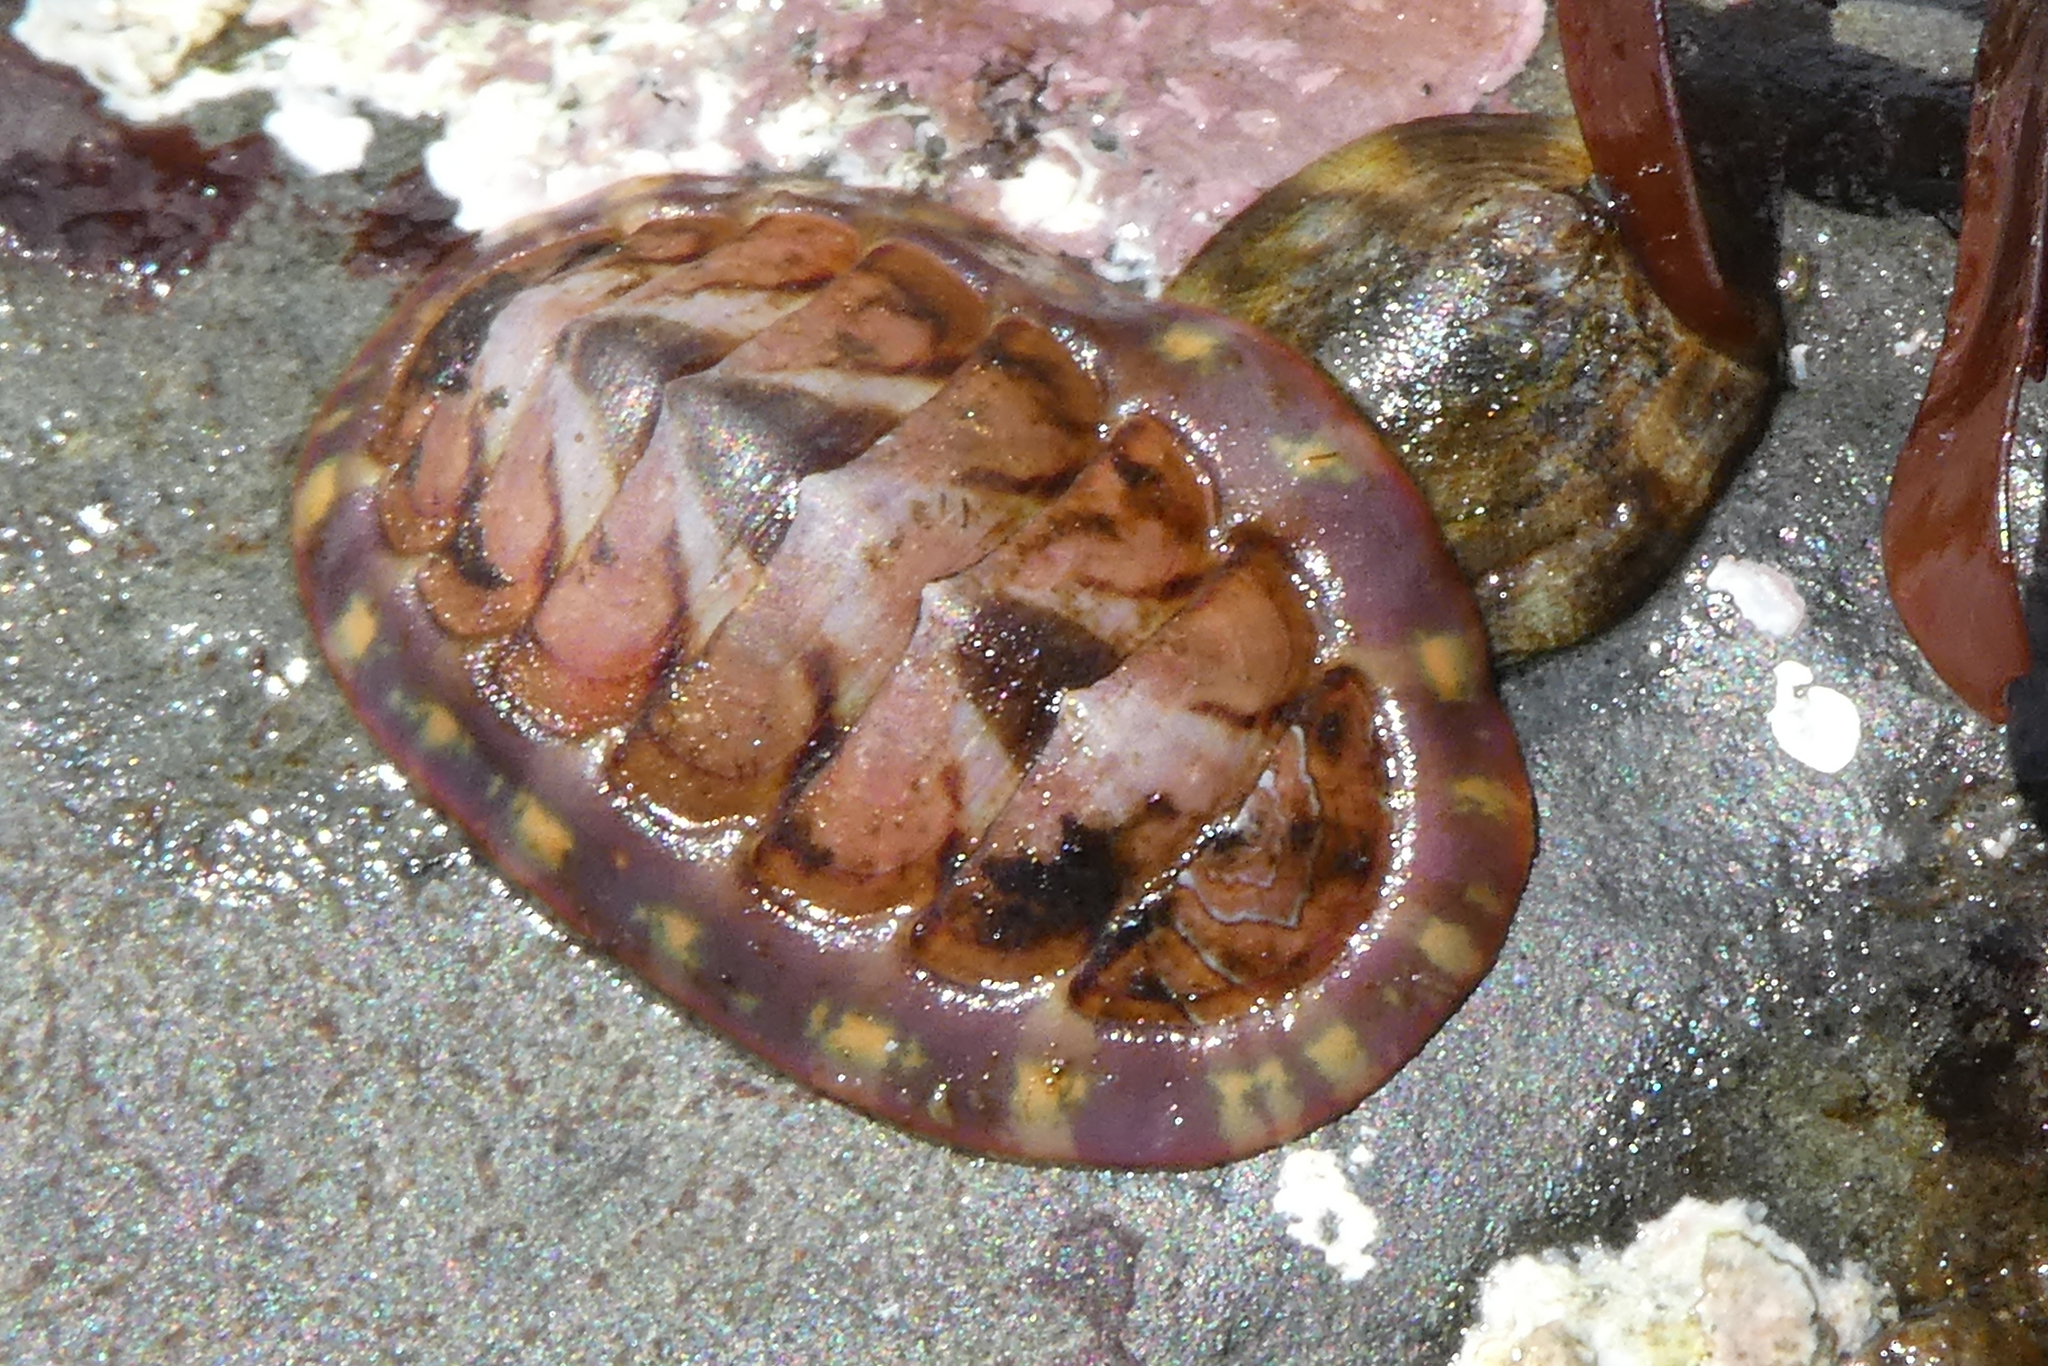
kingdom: Animalia
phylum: Mollusca
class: Polyplacophora
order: Chitonida
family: Tonicellidae
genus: Tonicella
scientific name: Tonicella lineata
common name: Lined chiton
